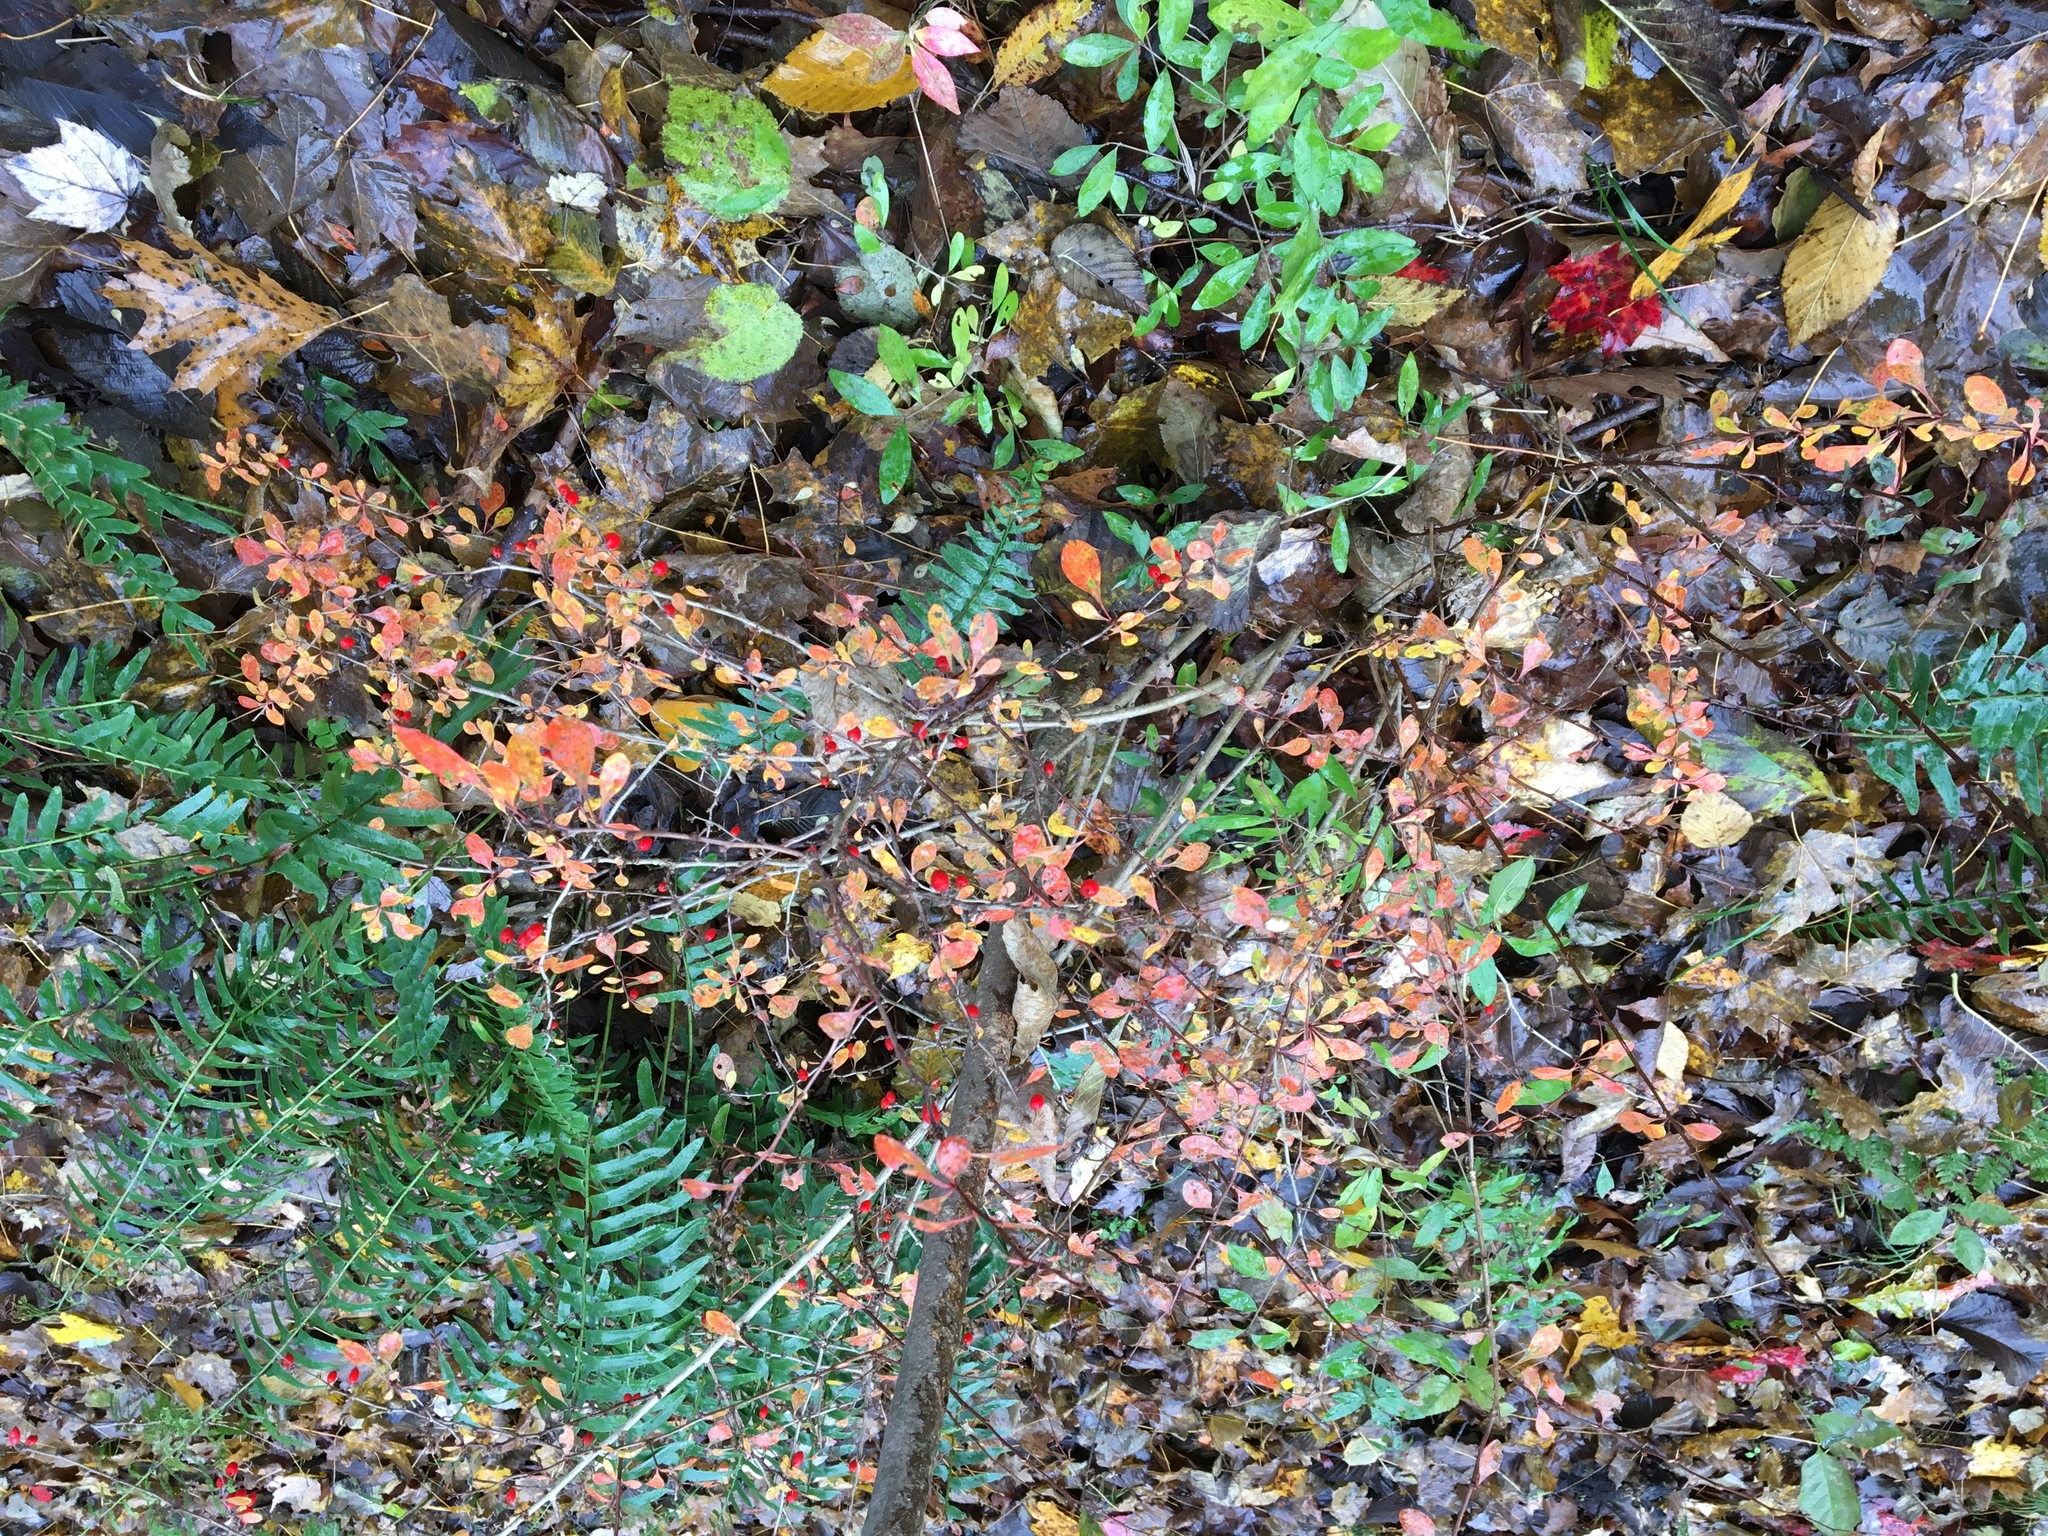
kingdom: Plantae
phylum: Tracheophyta
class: Magnoliopsida
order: Ranunculales
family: Berberidaceae
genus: Berberis
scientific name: Berberis thunbergii
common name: Japanese barberry
